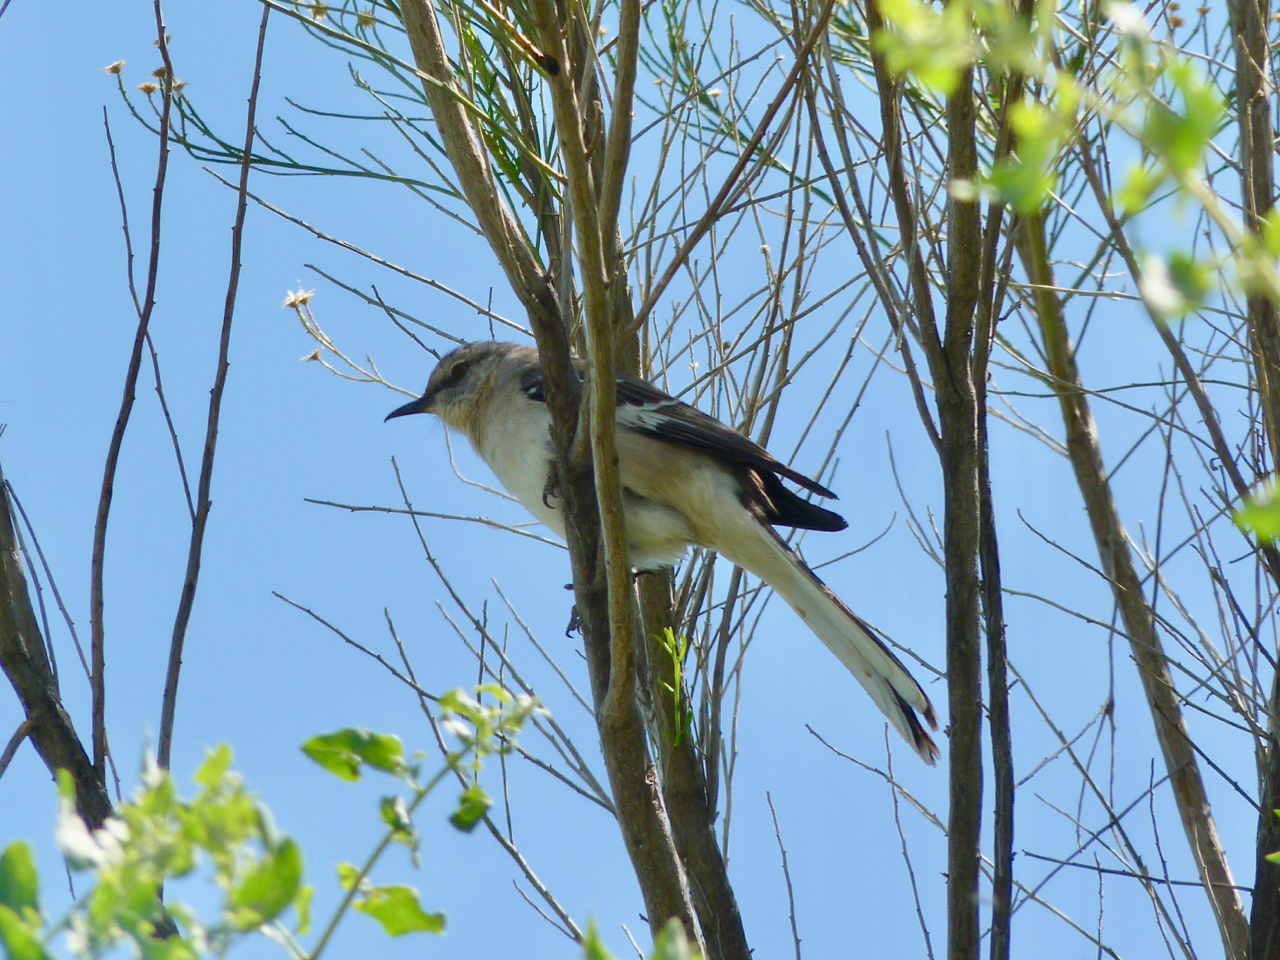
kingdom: Animalia
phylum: Chordata
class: Aves
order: Passeriformes
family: Mimidae
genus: Mimus
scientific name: Mimus polyglottos
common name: Northern mockingbird
